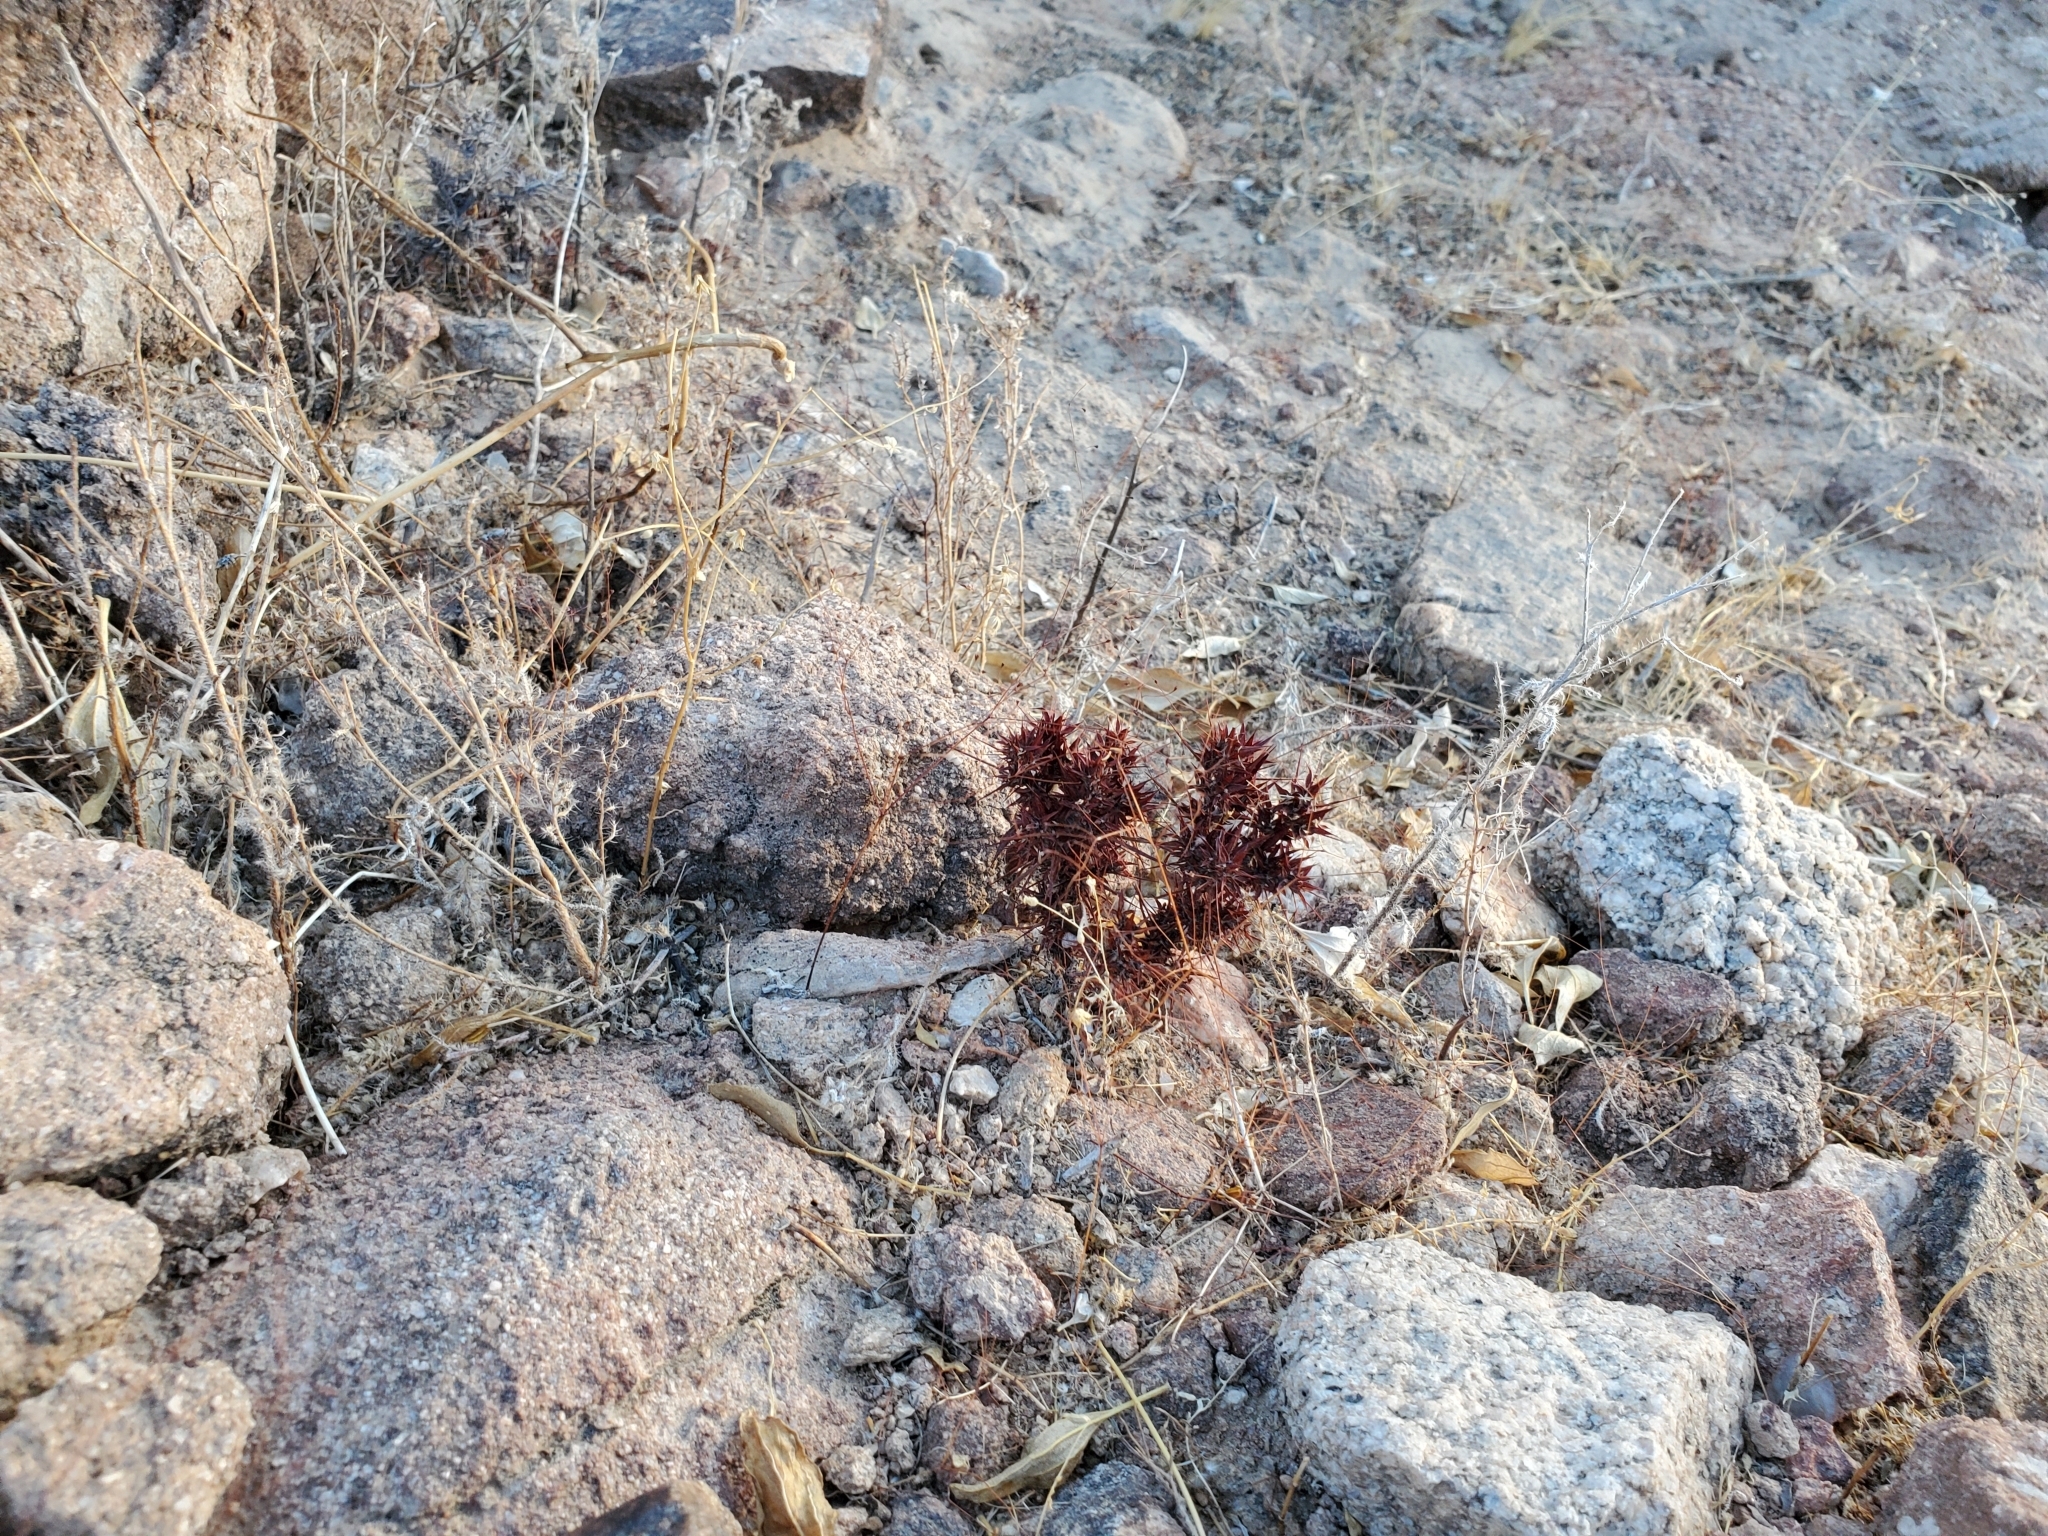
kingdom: Plantae
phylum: Tracheophyta
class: Magnoliopsida
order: Caryophyllales
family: Polygonaceae
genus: Chorizanthe
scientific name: Chorizanthe rigida
